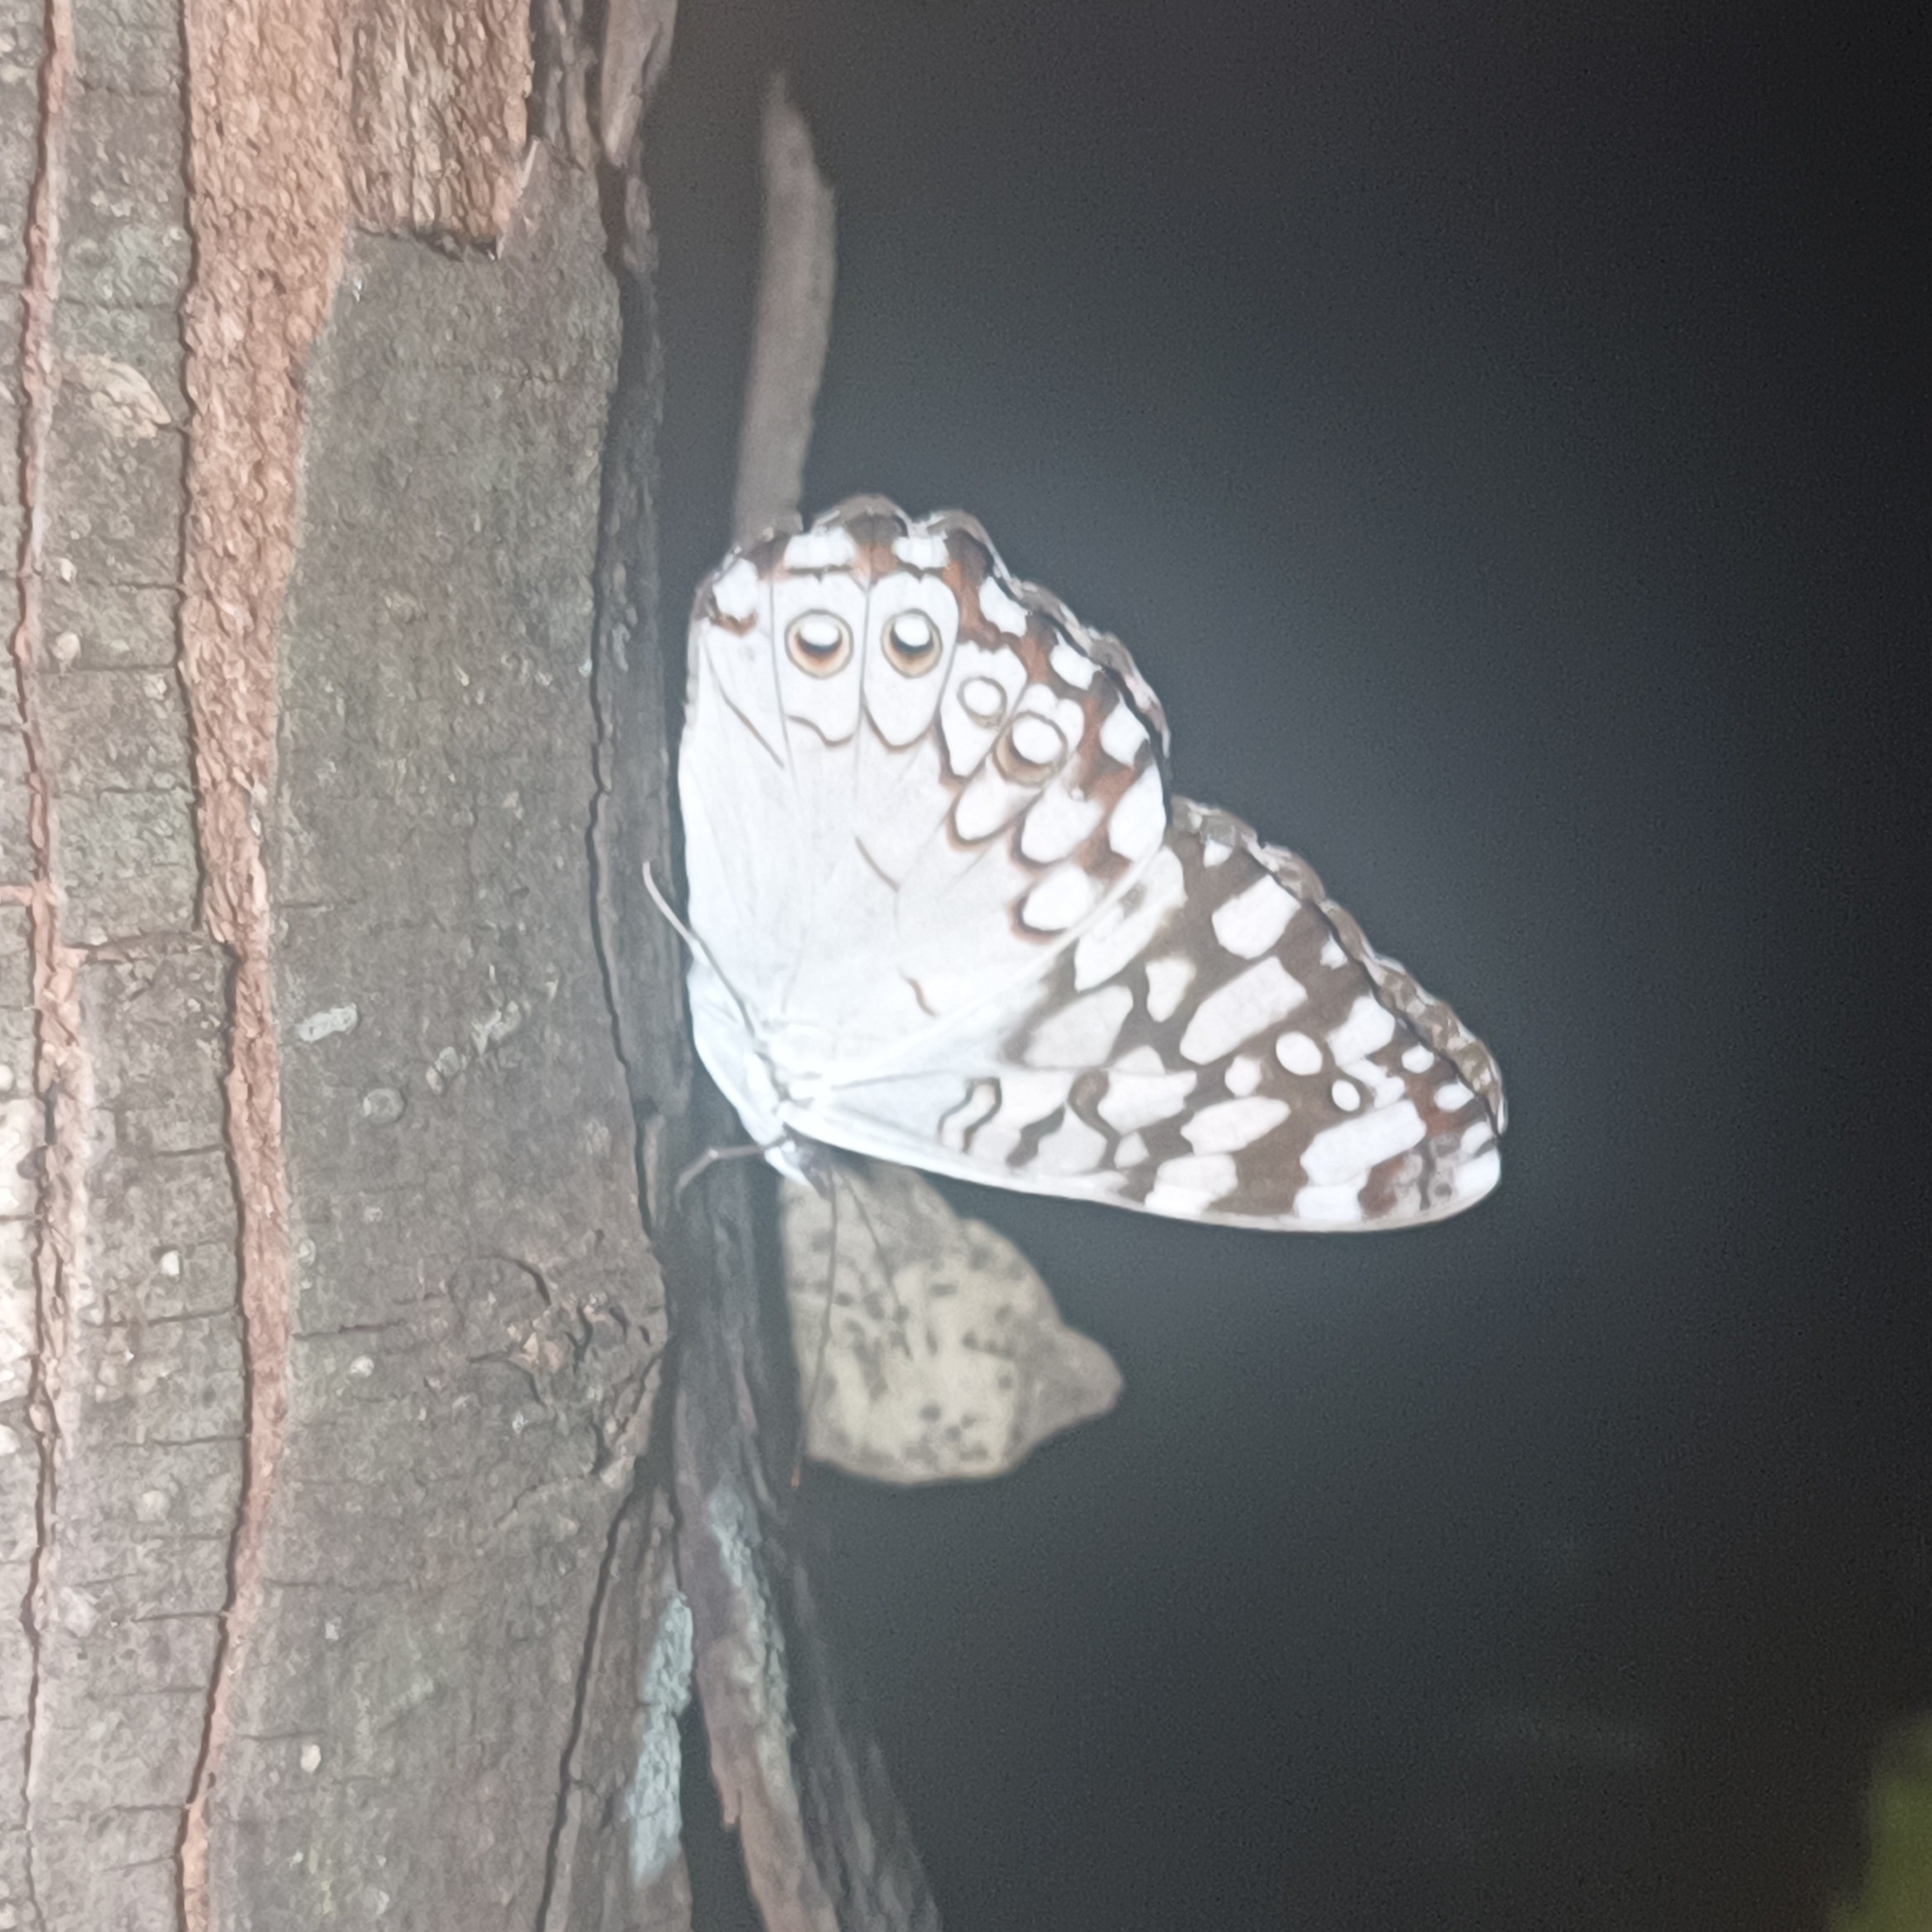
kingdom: Animalia
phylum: Arthropoda
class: Insecta
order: Lepidoptera
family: Nymphalidae
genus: Hamadryas
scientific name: Hamadryas februa
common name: Gray cracker
